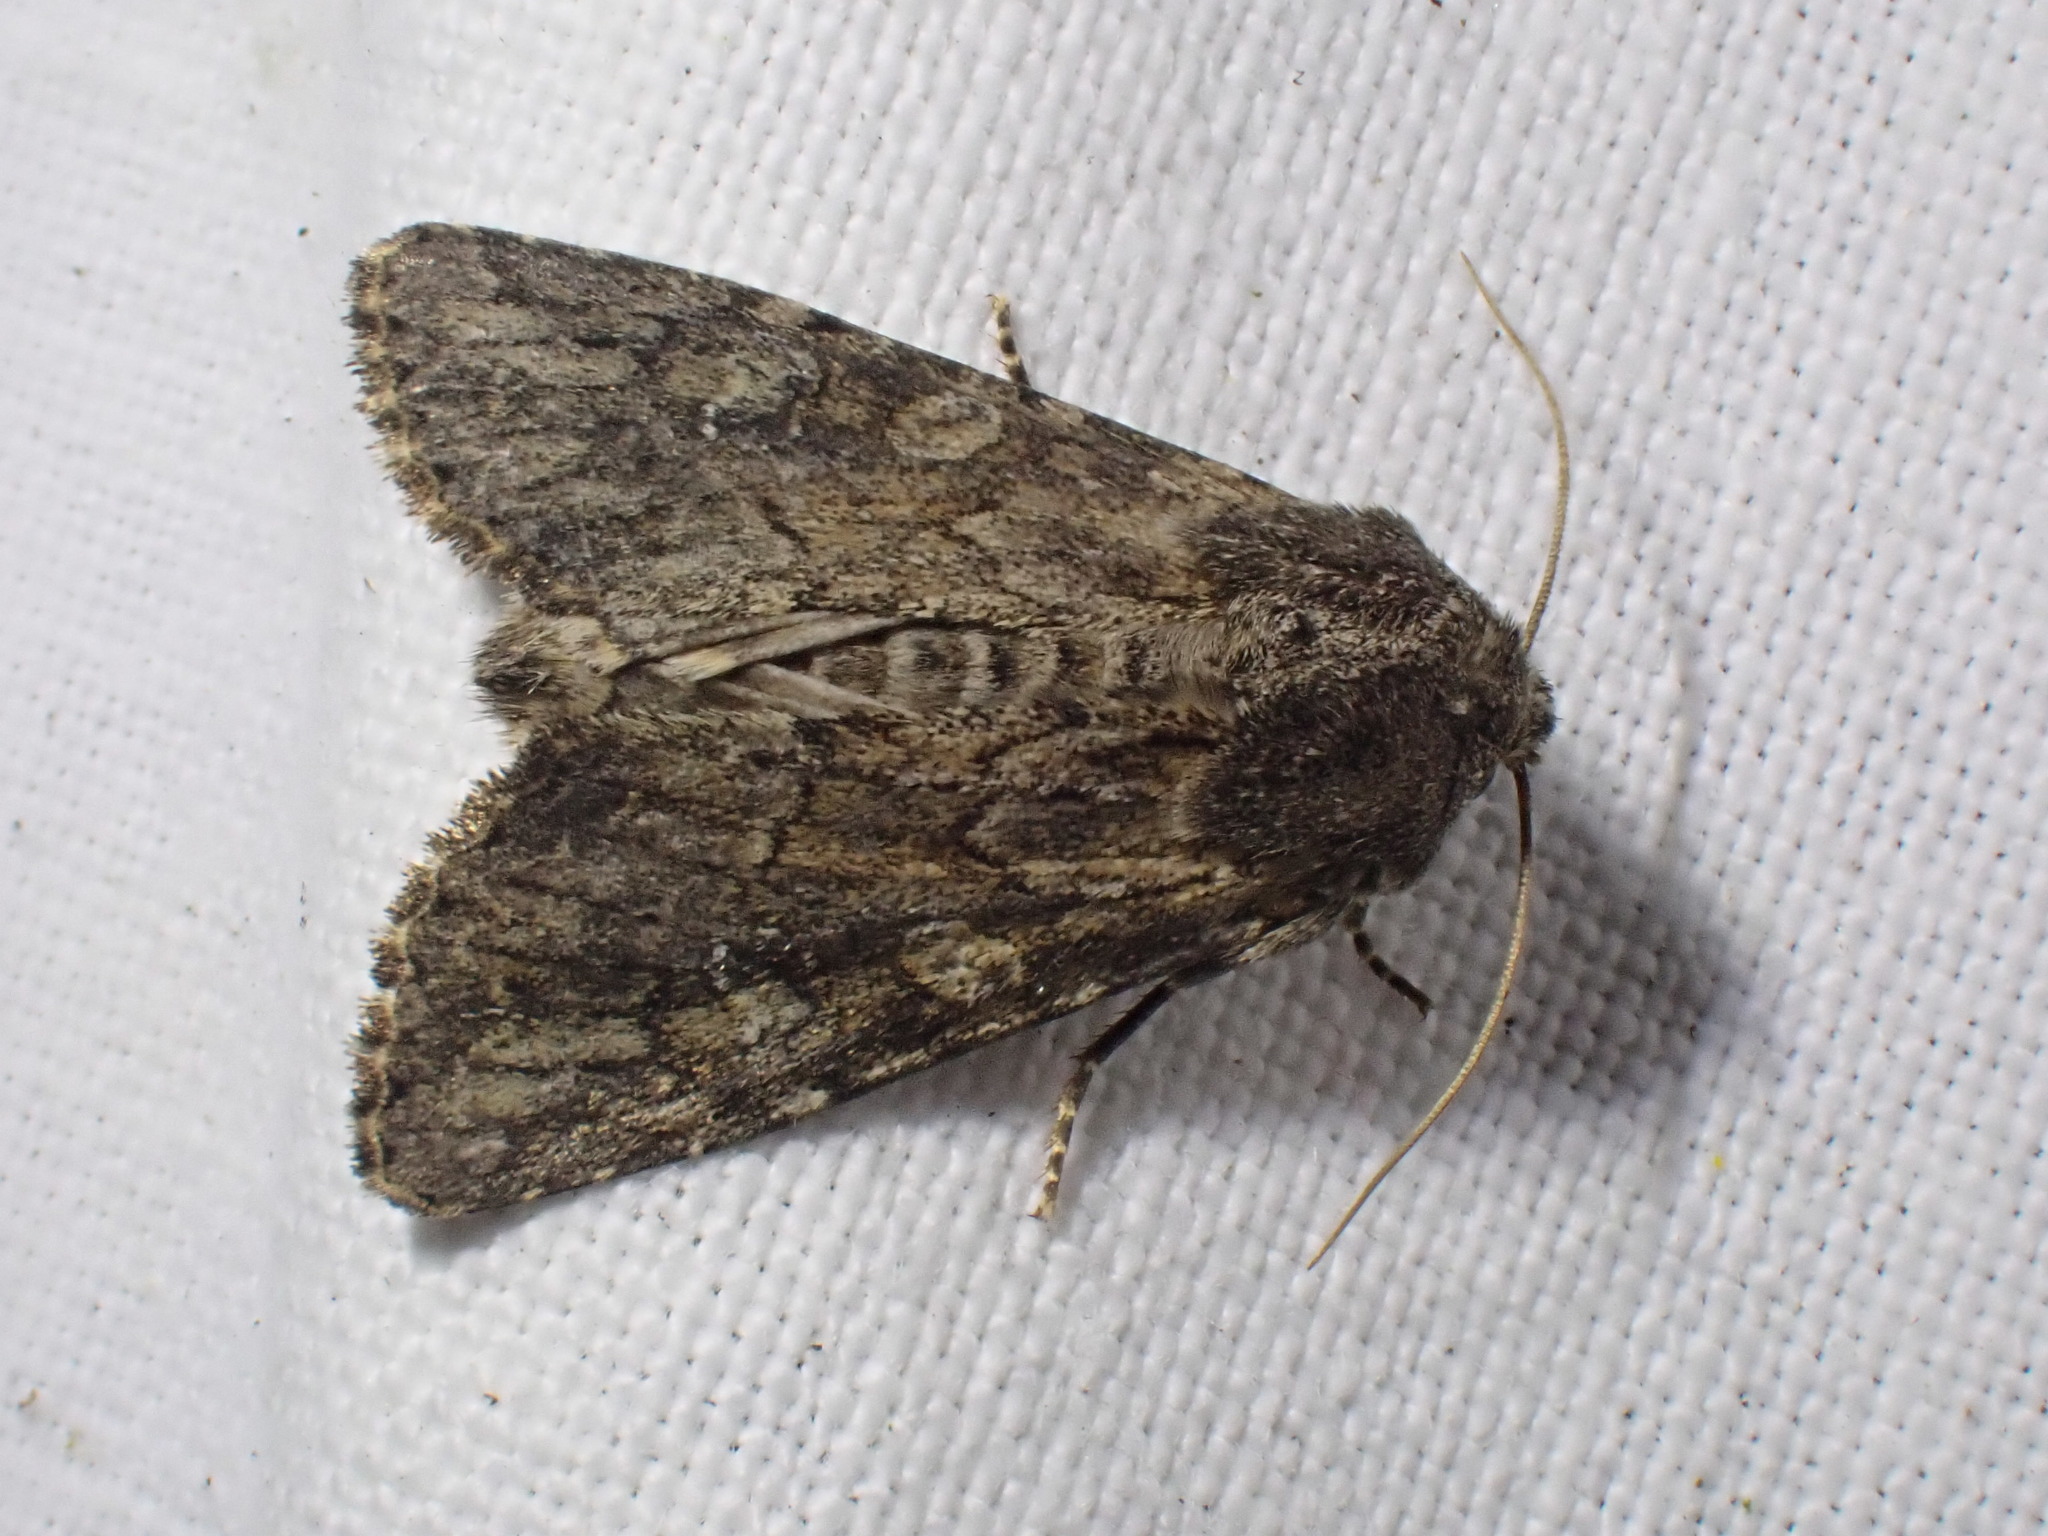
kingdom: Animalia
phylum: Arthropoda
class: Insecta
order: Lepidoptera
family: Noctuidae
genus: Apamea
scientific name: Apamea anceps
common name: Large nutmeg
